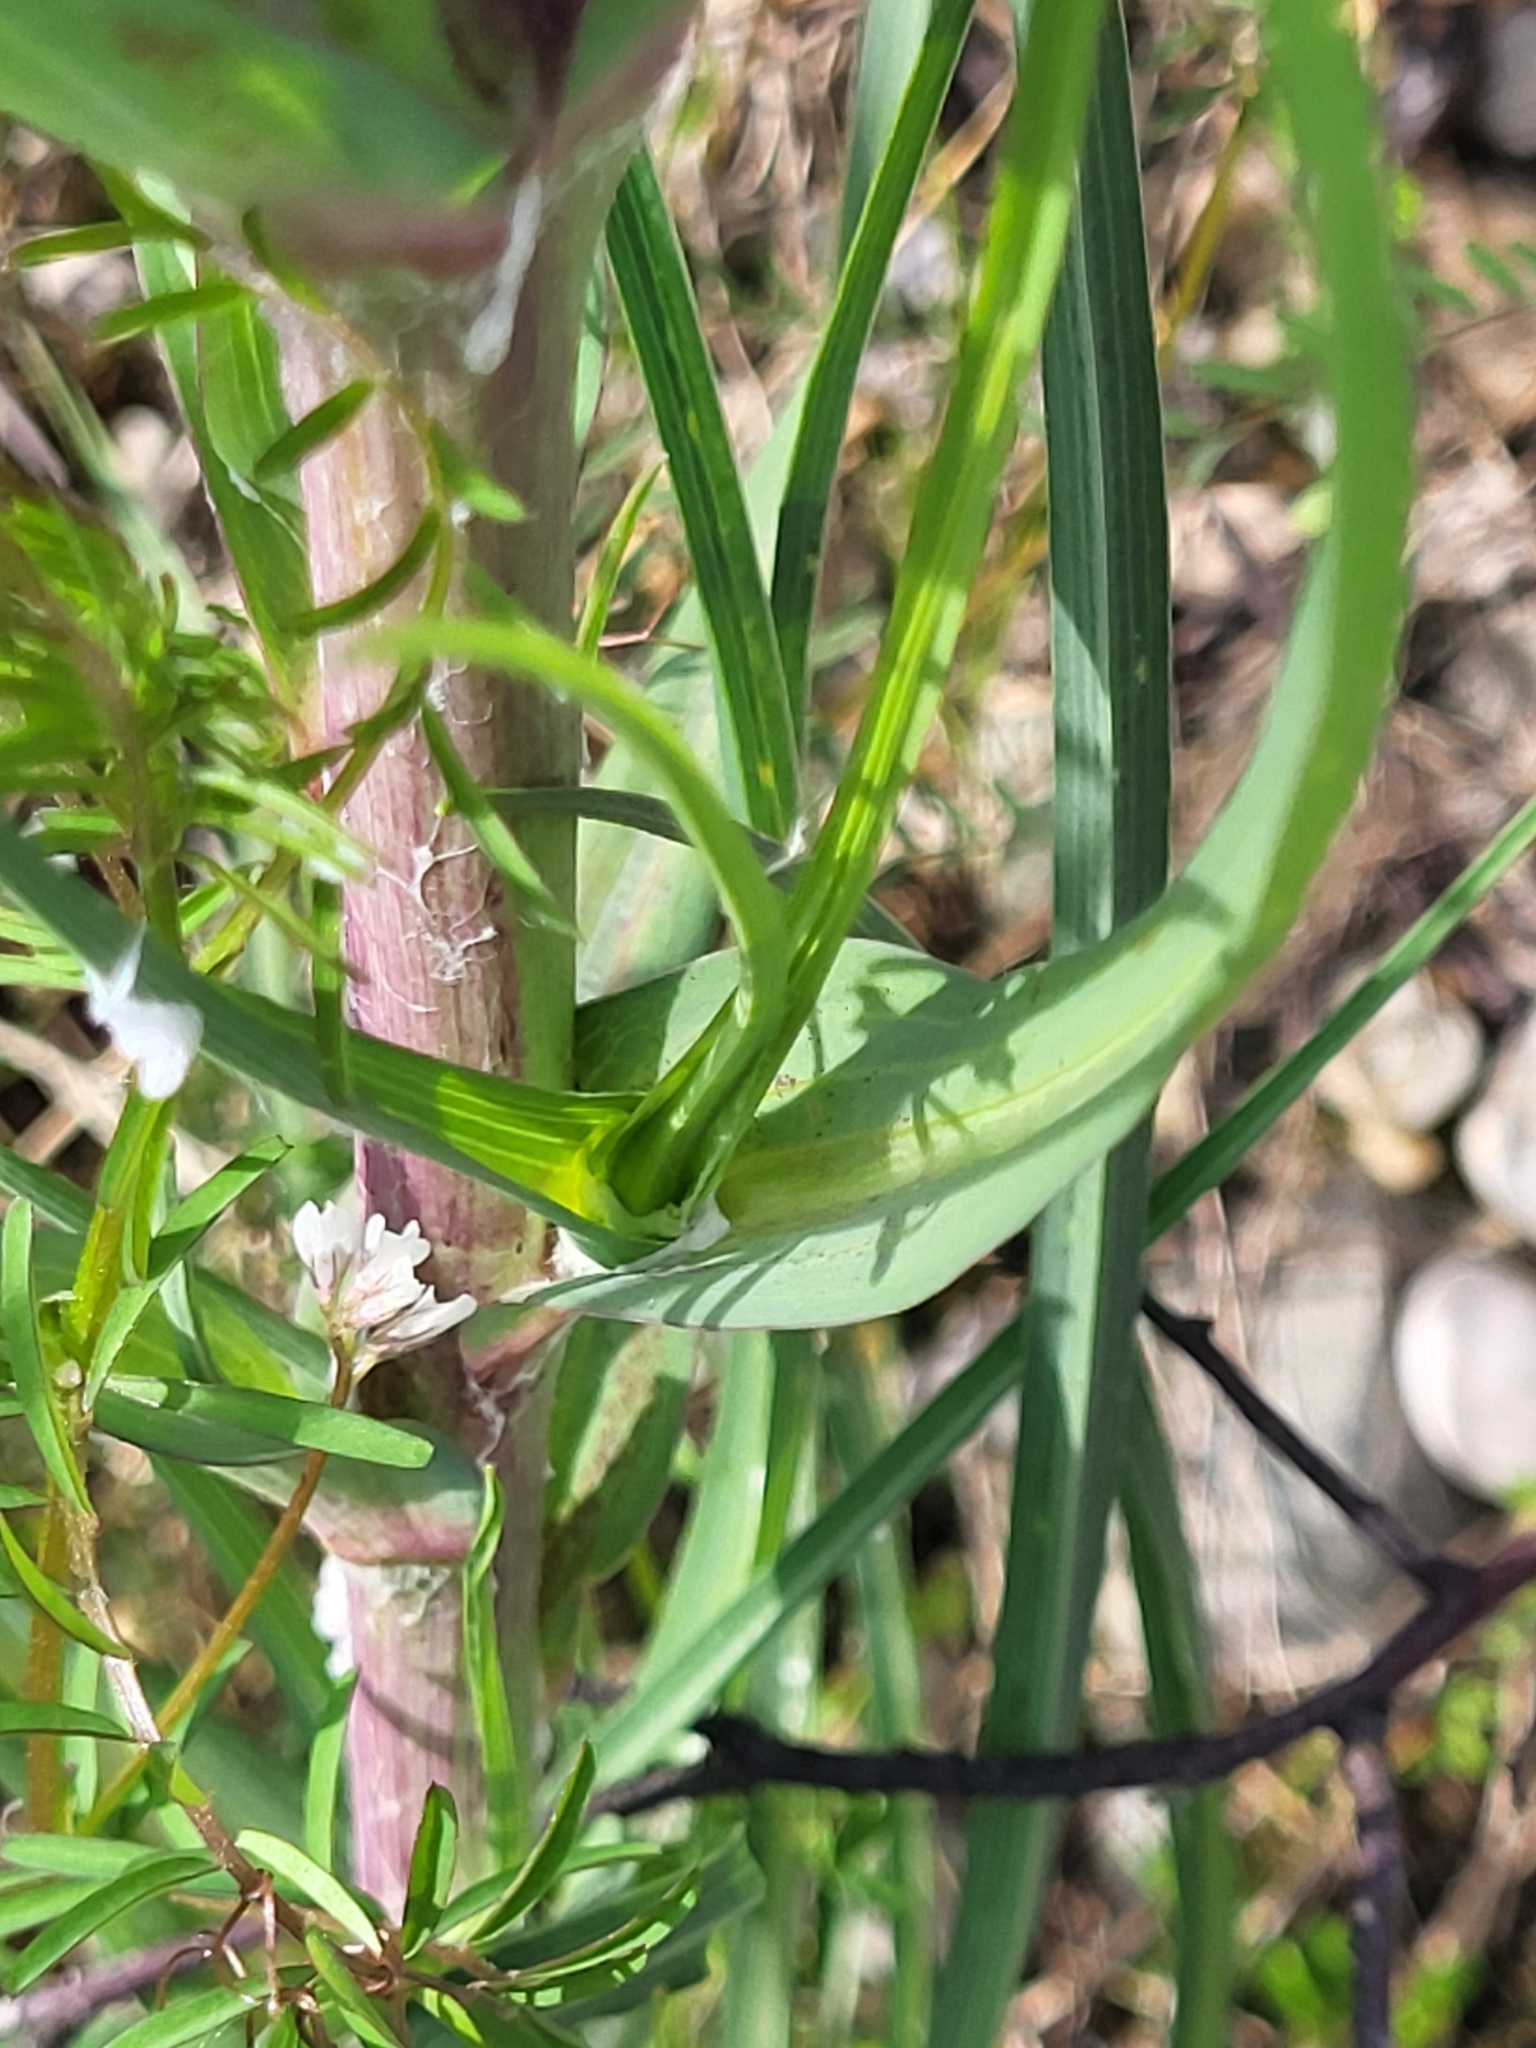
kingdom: Plantae
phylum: Tracheophyta
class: Magnoliopsida
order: Asterales
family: Asteraceae
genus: Tragopogon
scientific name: Tragopogon dubius
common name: Yellow salsify
